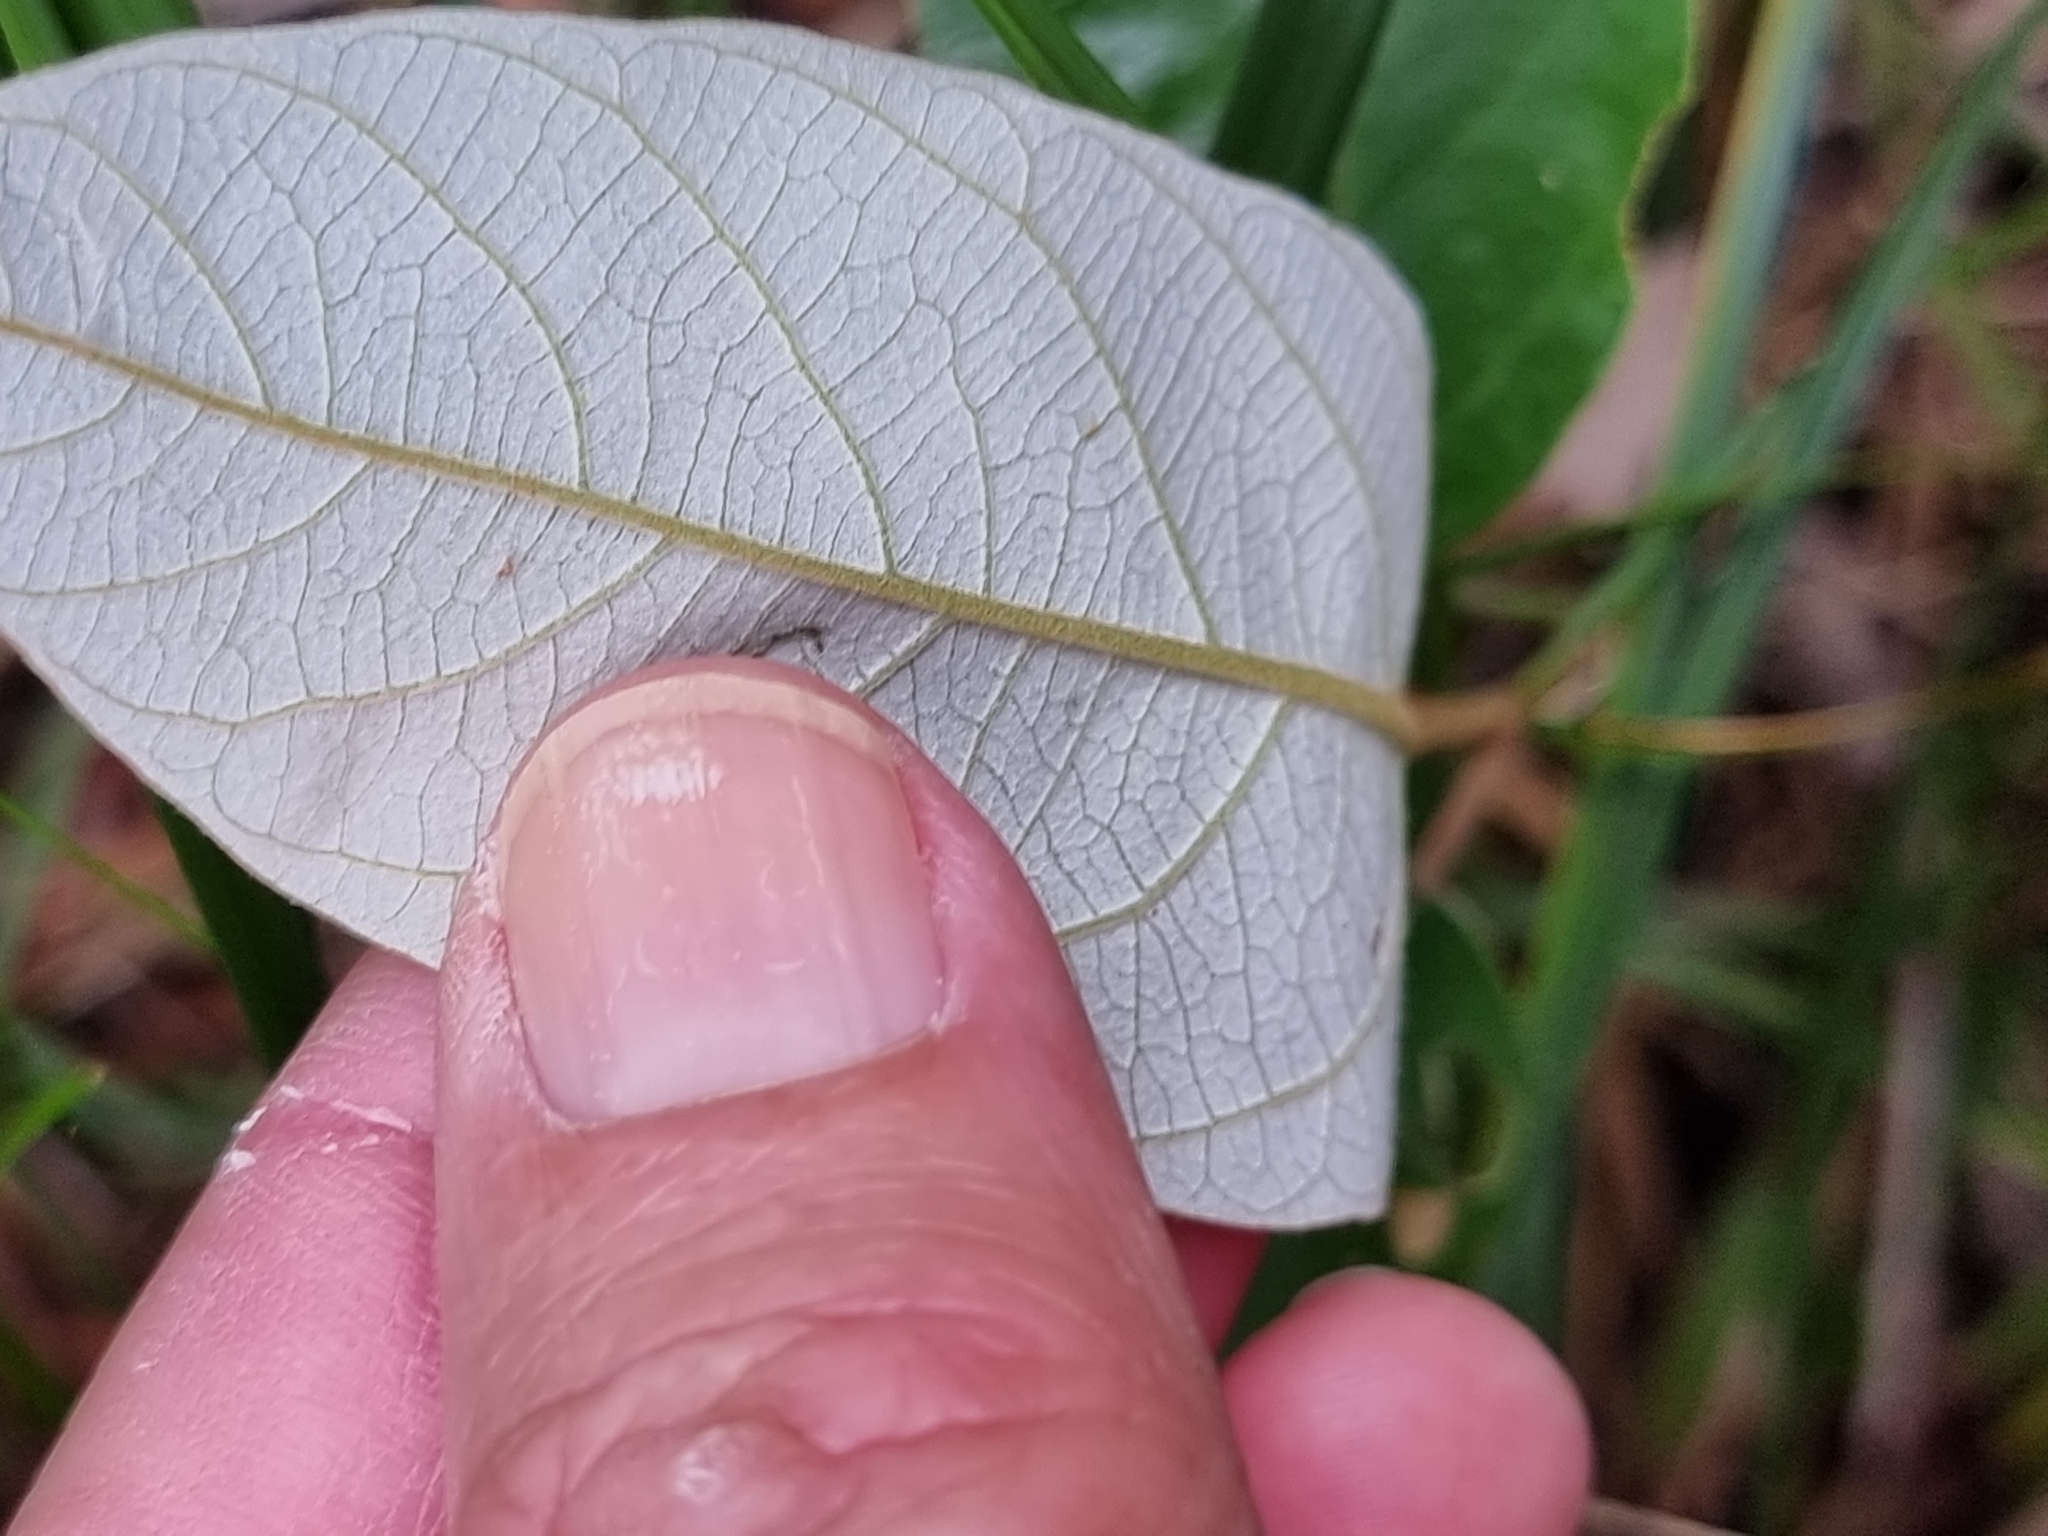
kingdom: Plantae
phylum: Tracheophyta
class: Magnoliopsida
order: Rosales
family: Rhamnaceae
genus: Alphitonia
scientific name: Alphitonia excelsa
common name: Red ash
